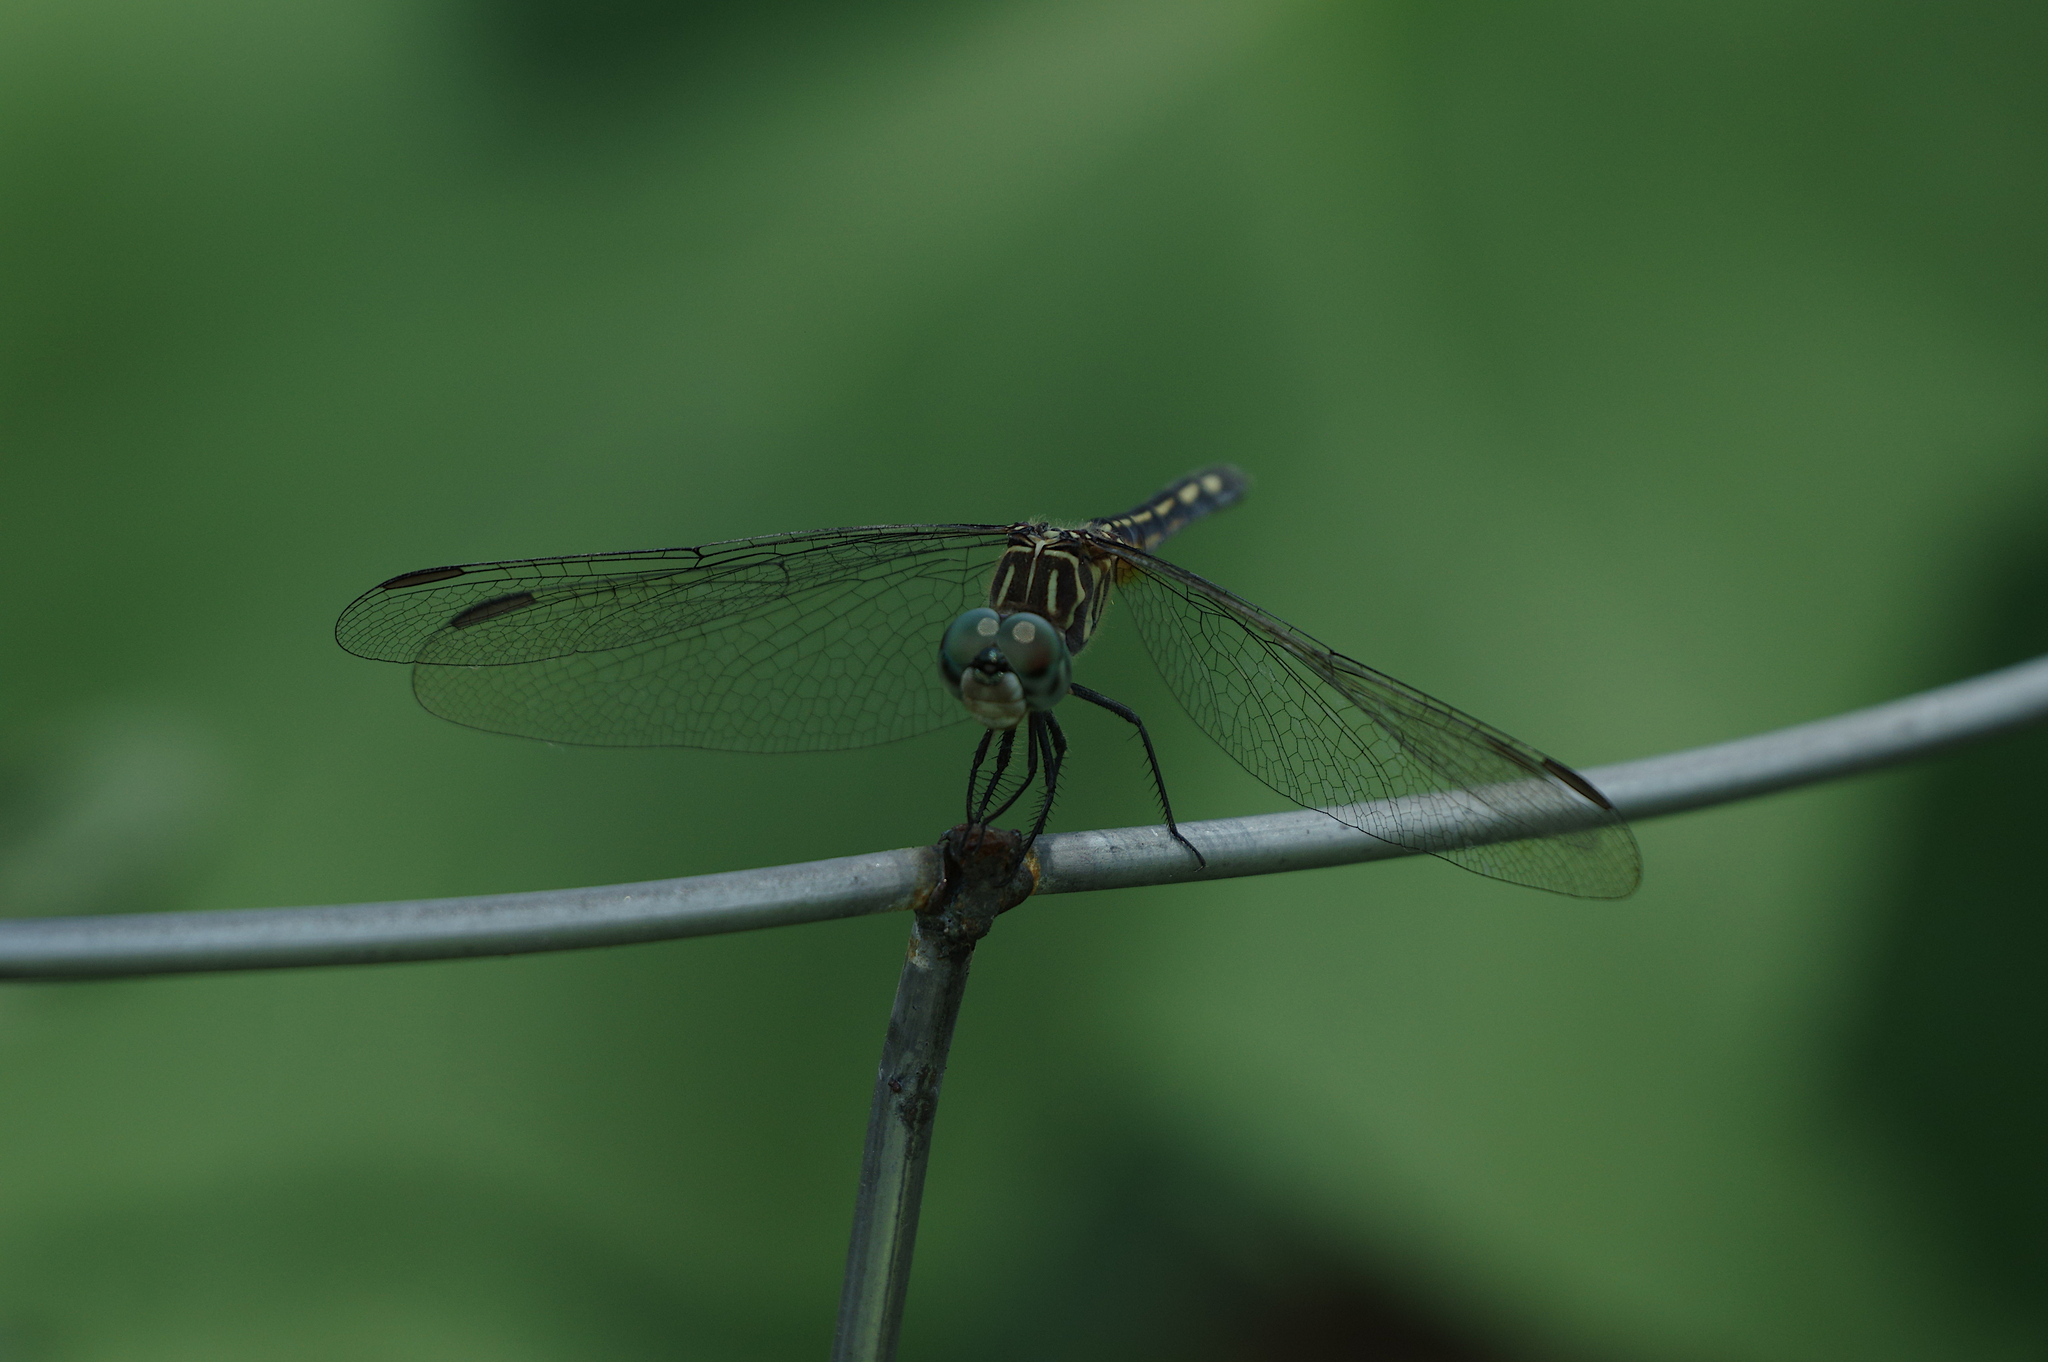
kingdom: Animalia
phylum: Arthropoda
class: Insecta
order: Odonata
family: Libellulidae
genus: Pachydiplax
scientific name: Pachydiplax longipennis
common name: Blue dasher
